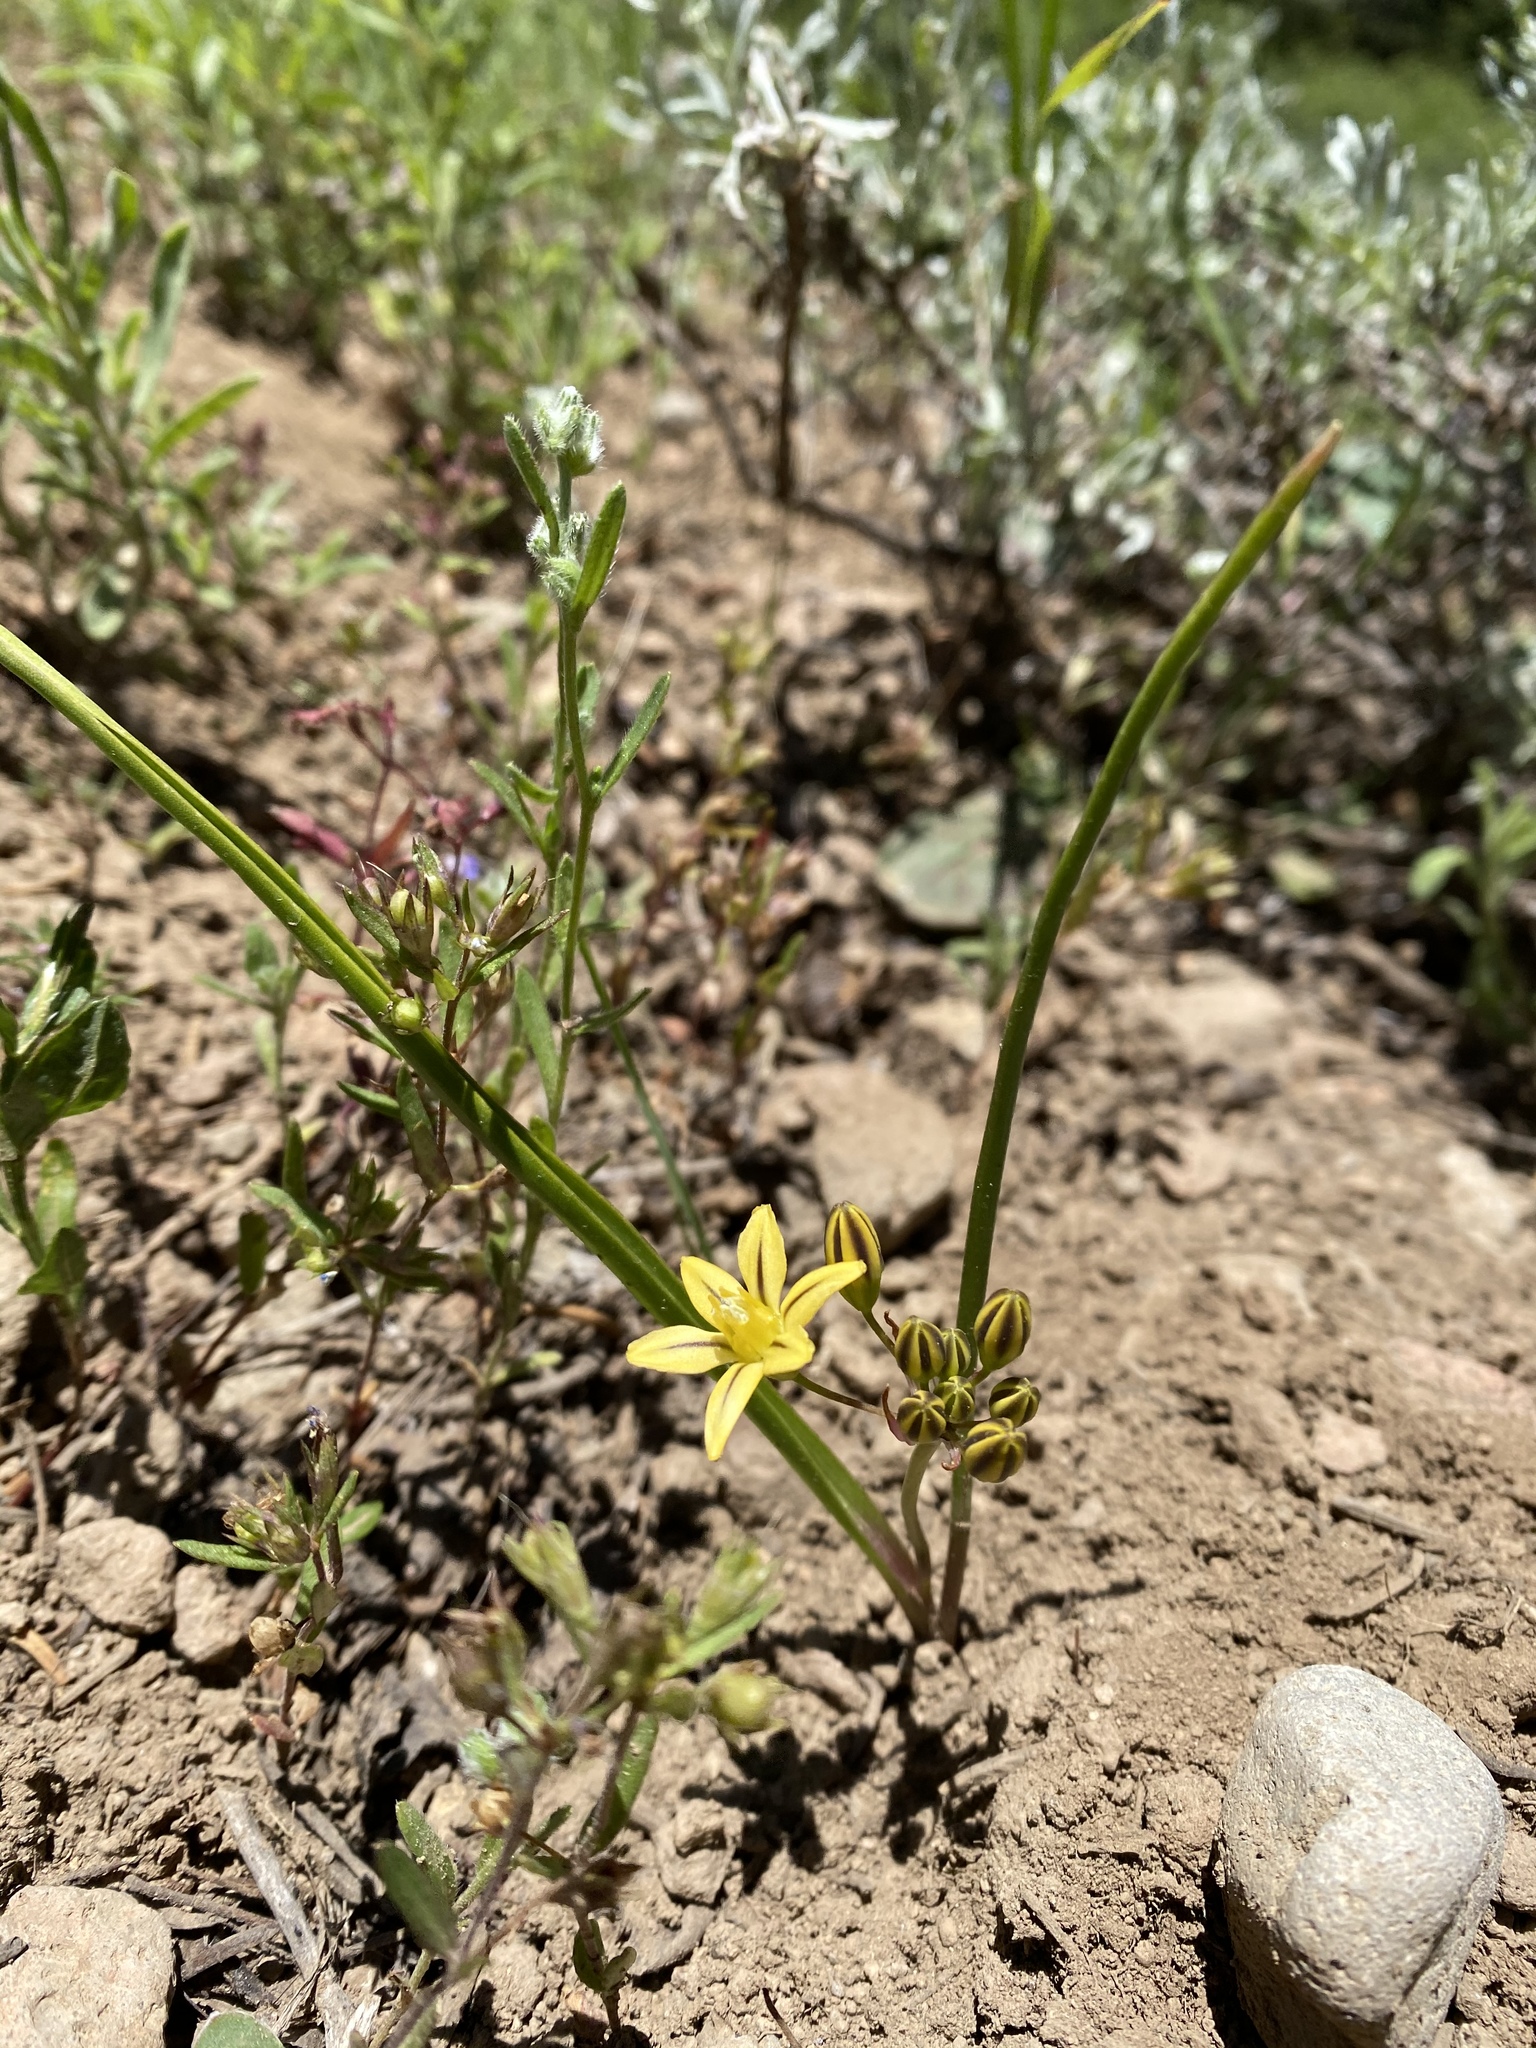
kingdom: Plantae
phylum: Tracheophyta
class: Liliopsida
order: Asparagales
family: Asparagaceae
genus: Triteleia
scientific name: Triteleia ixioides
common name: Yellow-brodiaea
